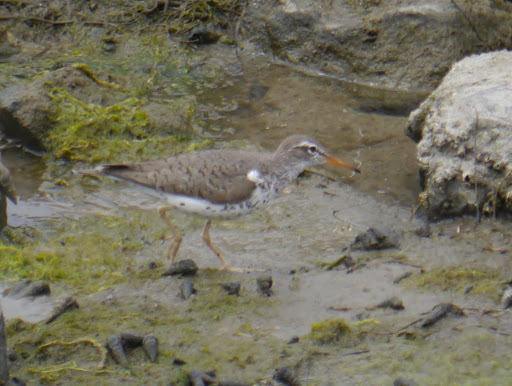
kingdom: Animalia
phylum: Chordata
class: Aves
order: Charadriiformes
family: Scolopacidae
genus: Actitis
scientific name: Actitis macularius
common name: Spotted sandpiper
